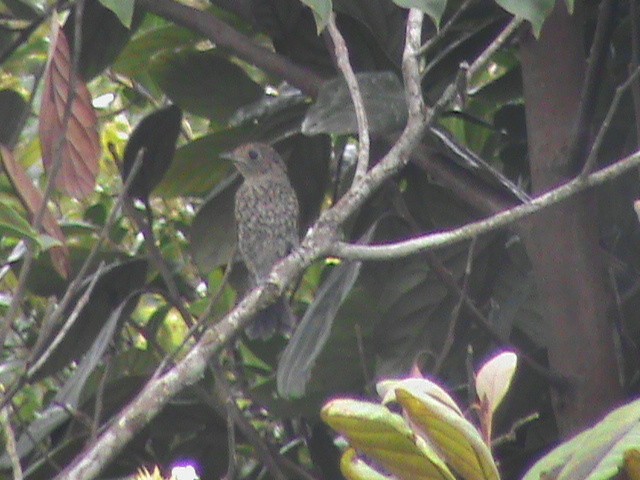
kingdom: Animalia
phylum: Chordata
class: Aves
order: Passeriformes
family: Muscicapidae
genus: Eumyias
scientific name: Eumyias albicaudatus
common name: Nilgiri flycatcher
